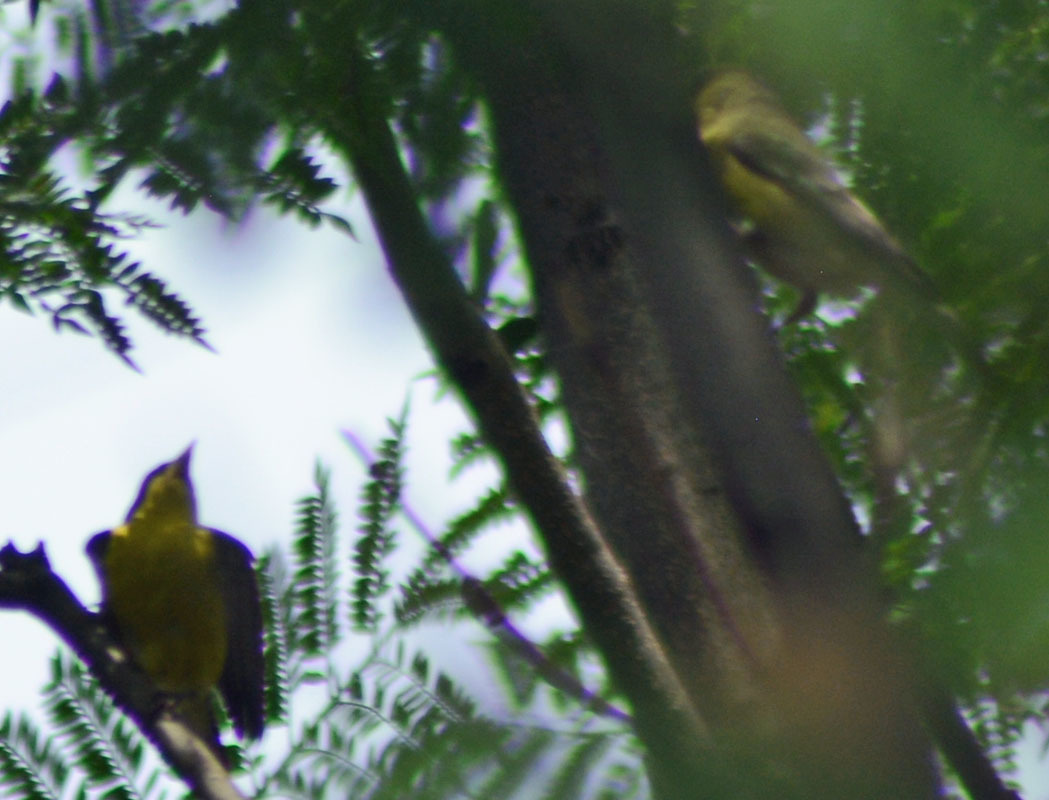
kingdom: Animalia
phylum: Chordata
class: Aves
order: Passeriformes
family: Fringillidae
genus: Spinus
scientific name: Spinus psaltria
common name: Lesser goldfinch
